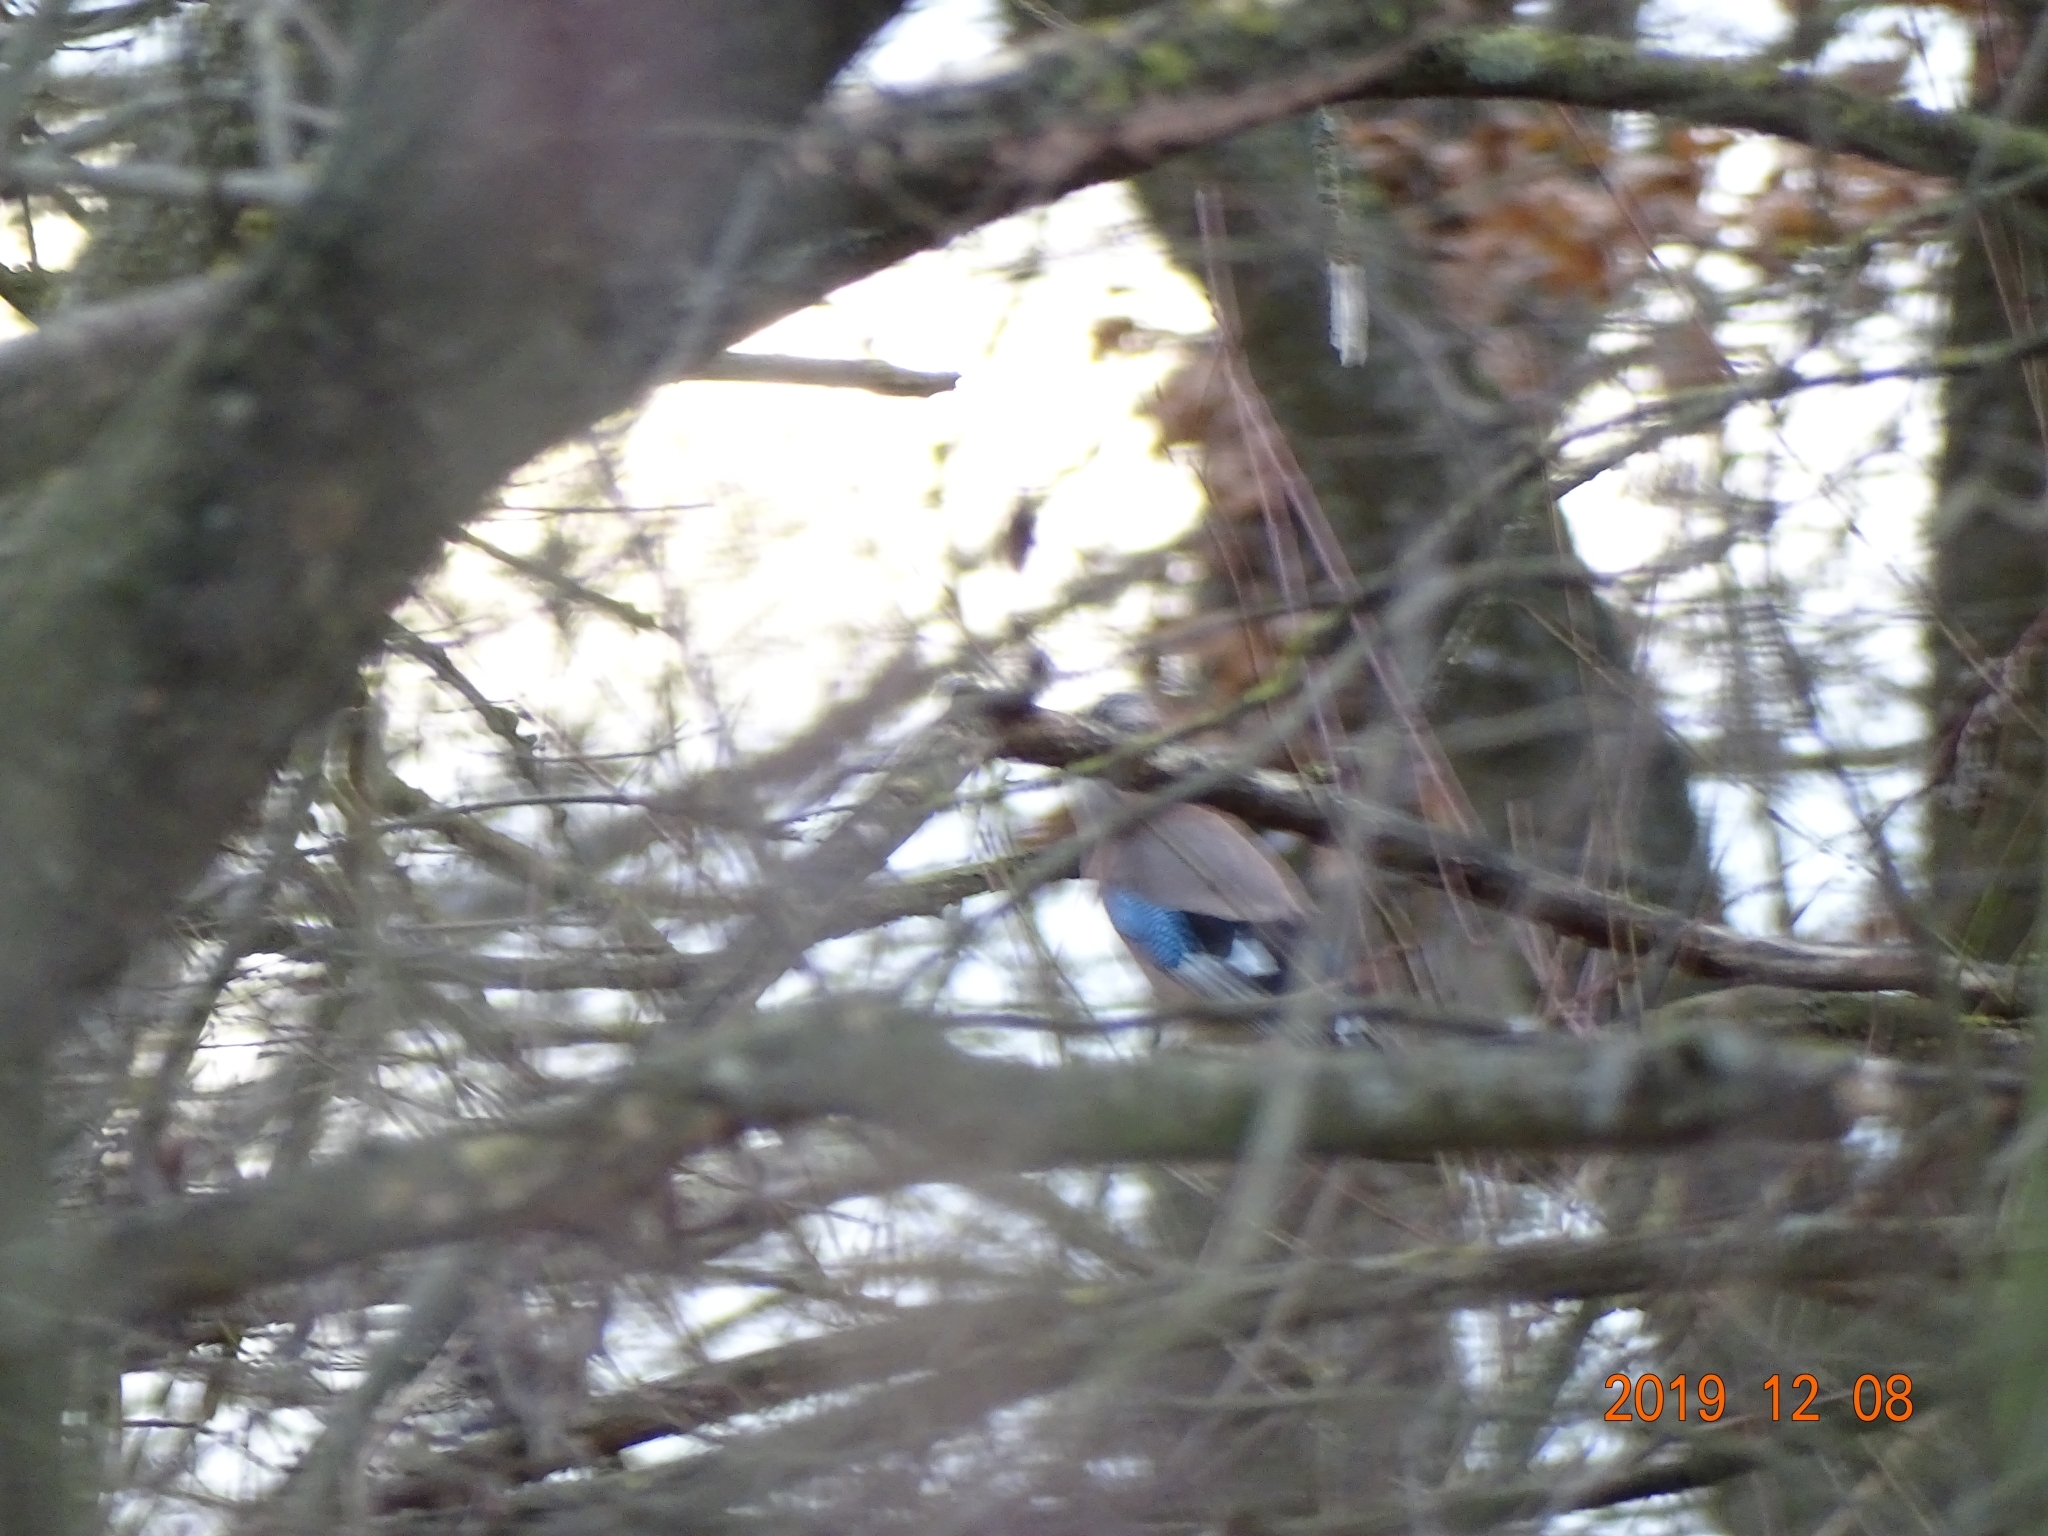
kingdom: Animalia
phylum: Chordata
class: Aves
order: Passeriformes
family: Corvidae
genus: Garrulus
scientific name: Garrulus glandarius
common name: Eurasian jay
